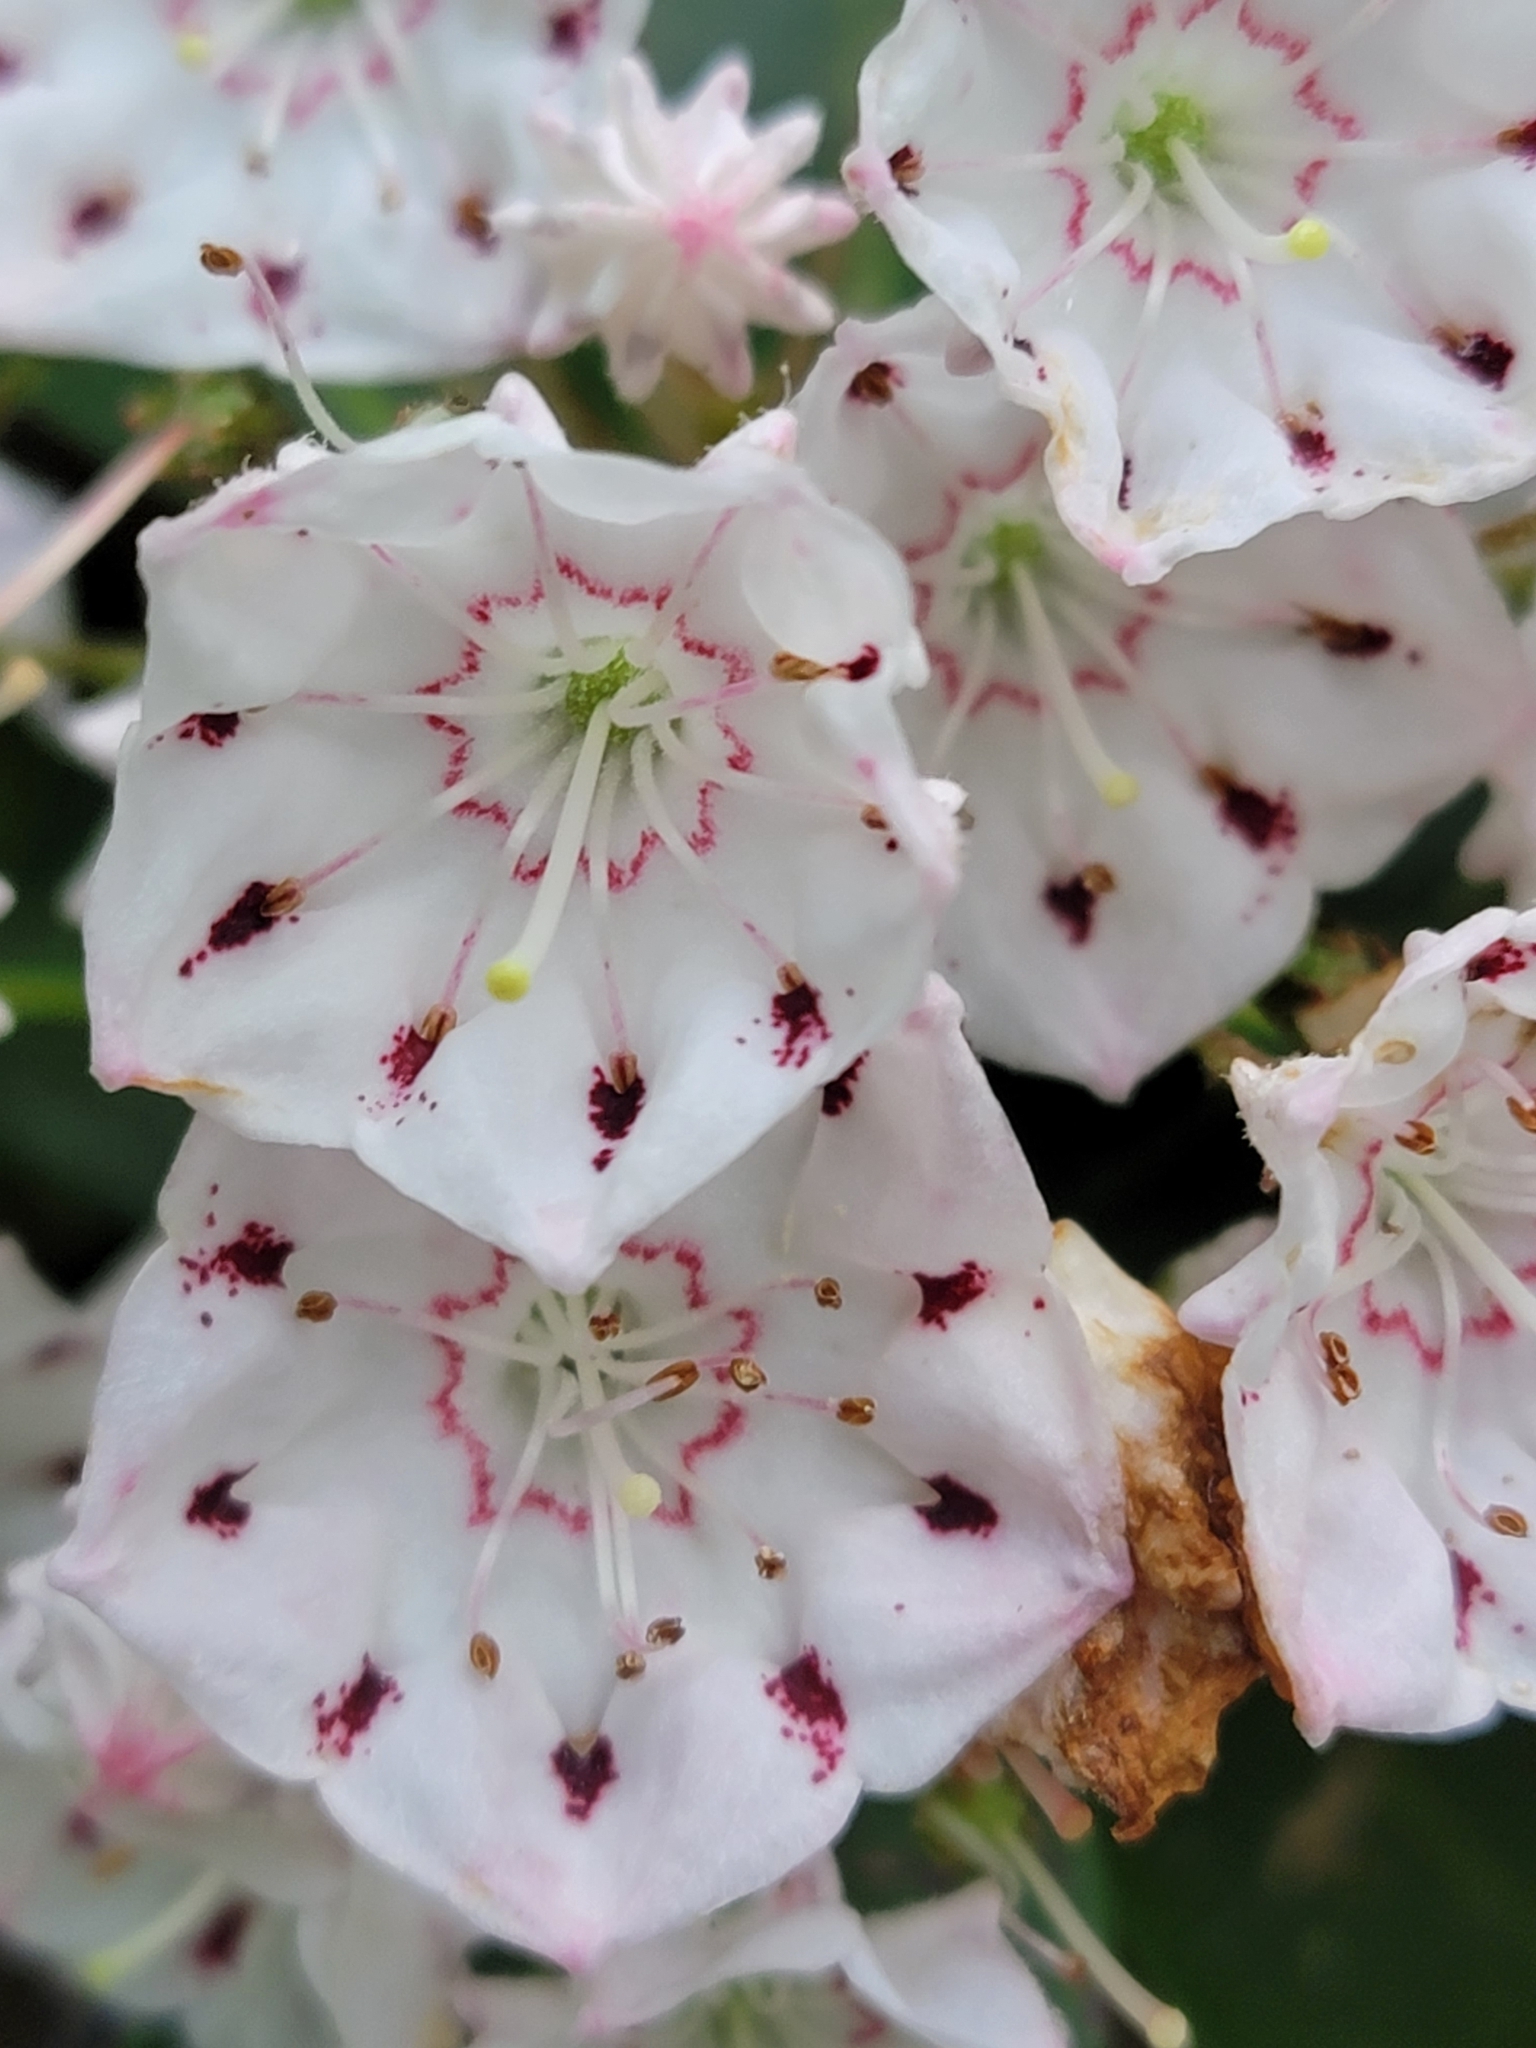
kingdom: Plantae
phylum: Tracheophyta
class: Magnoliopsida
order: Ericales
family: Ericaceae
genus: Kalmia
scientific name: Kalmia latifolia
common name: Mountain-laurel
